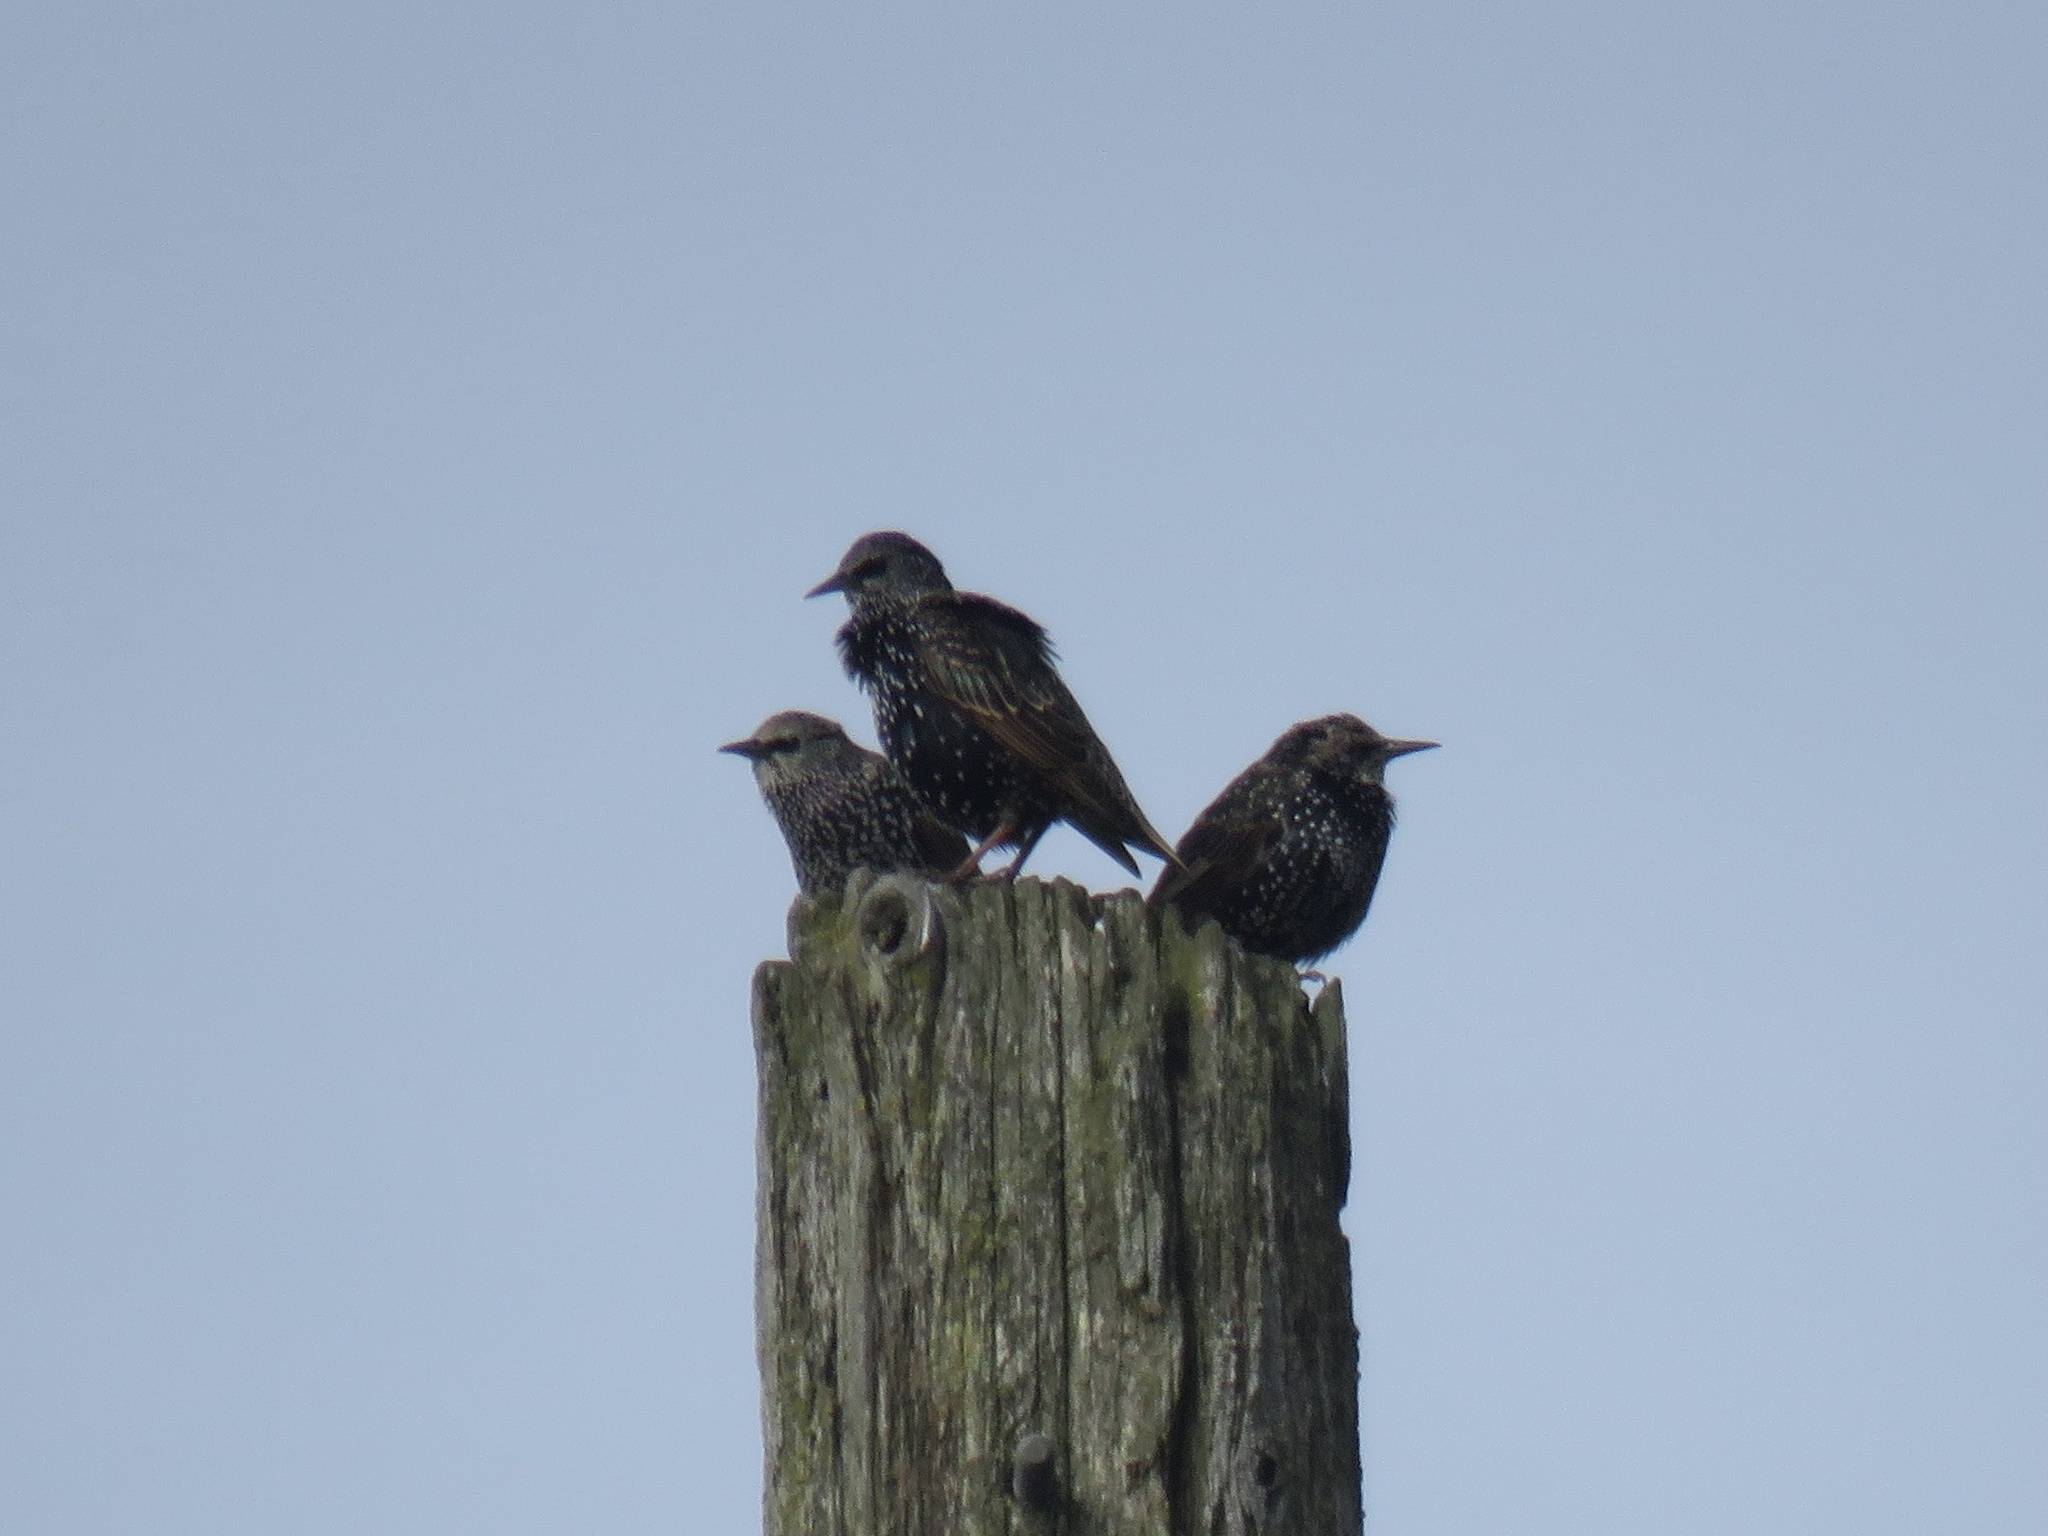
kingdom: Animalia
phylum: Chordata
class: Aves
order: Passeriformes
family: Sturnidae
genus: Sturnus
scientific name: Sturnus vulgaris
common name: Common starling
